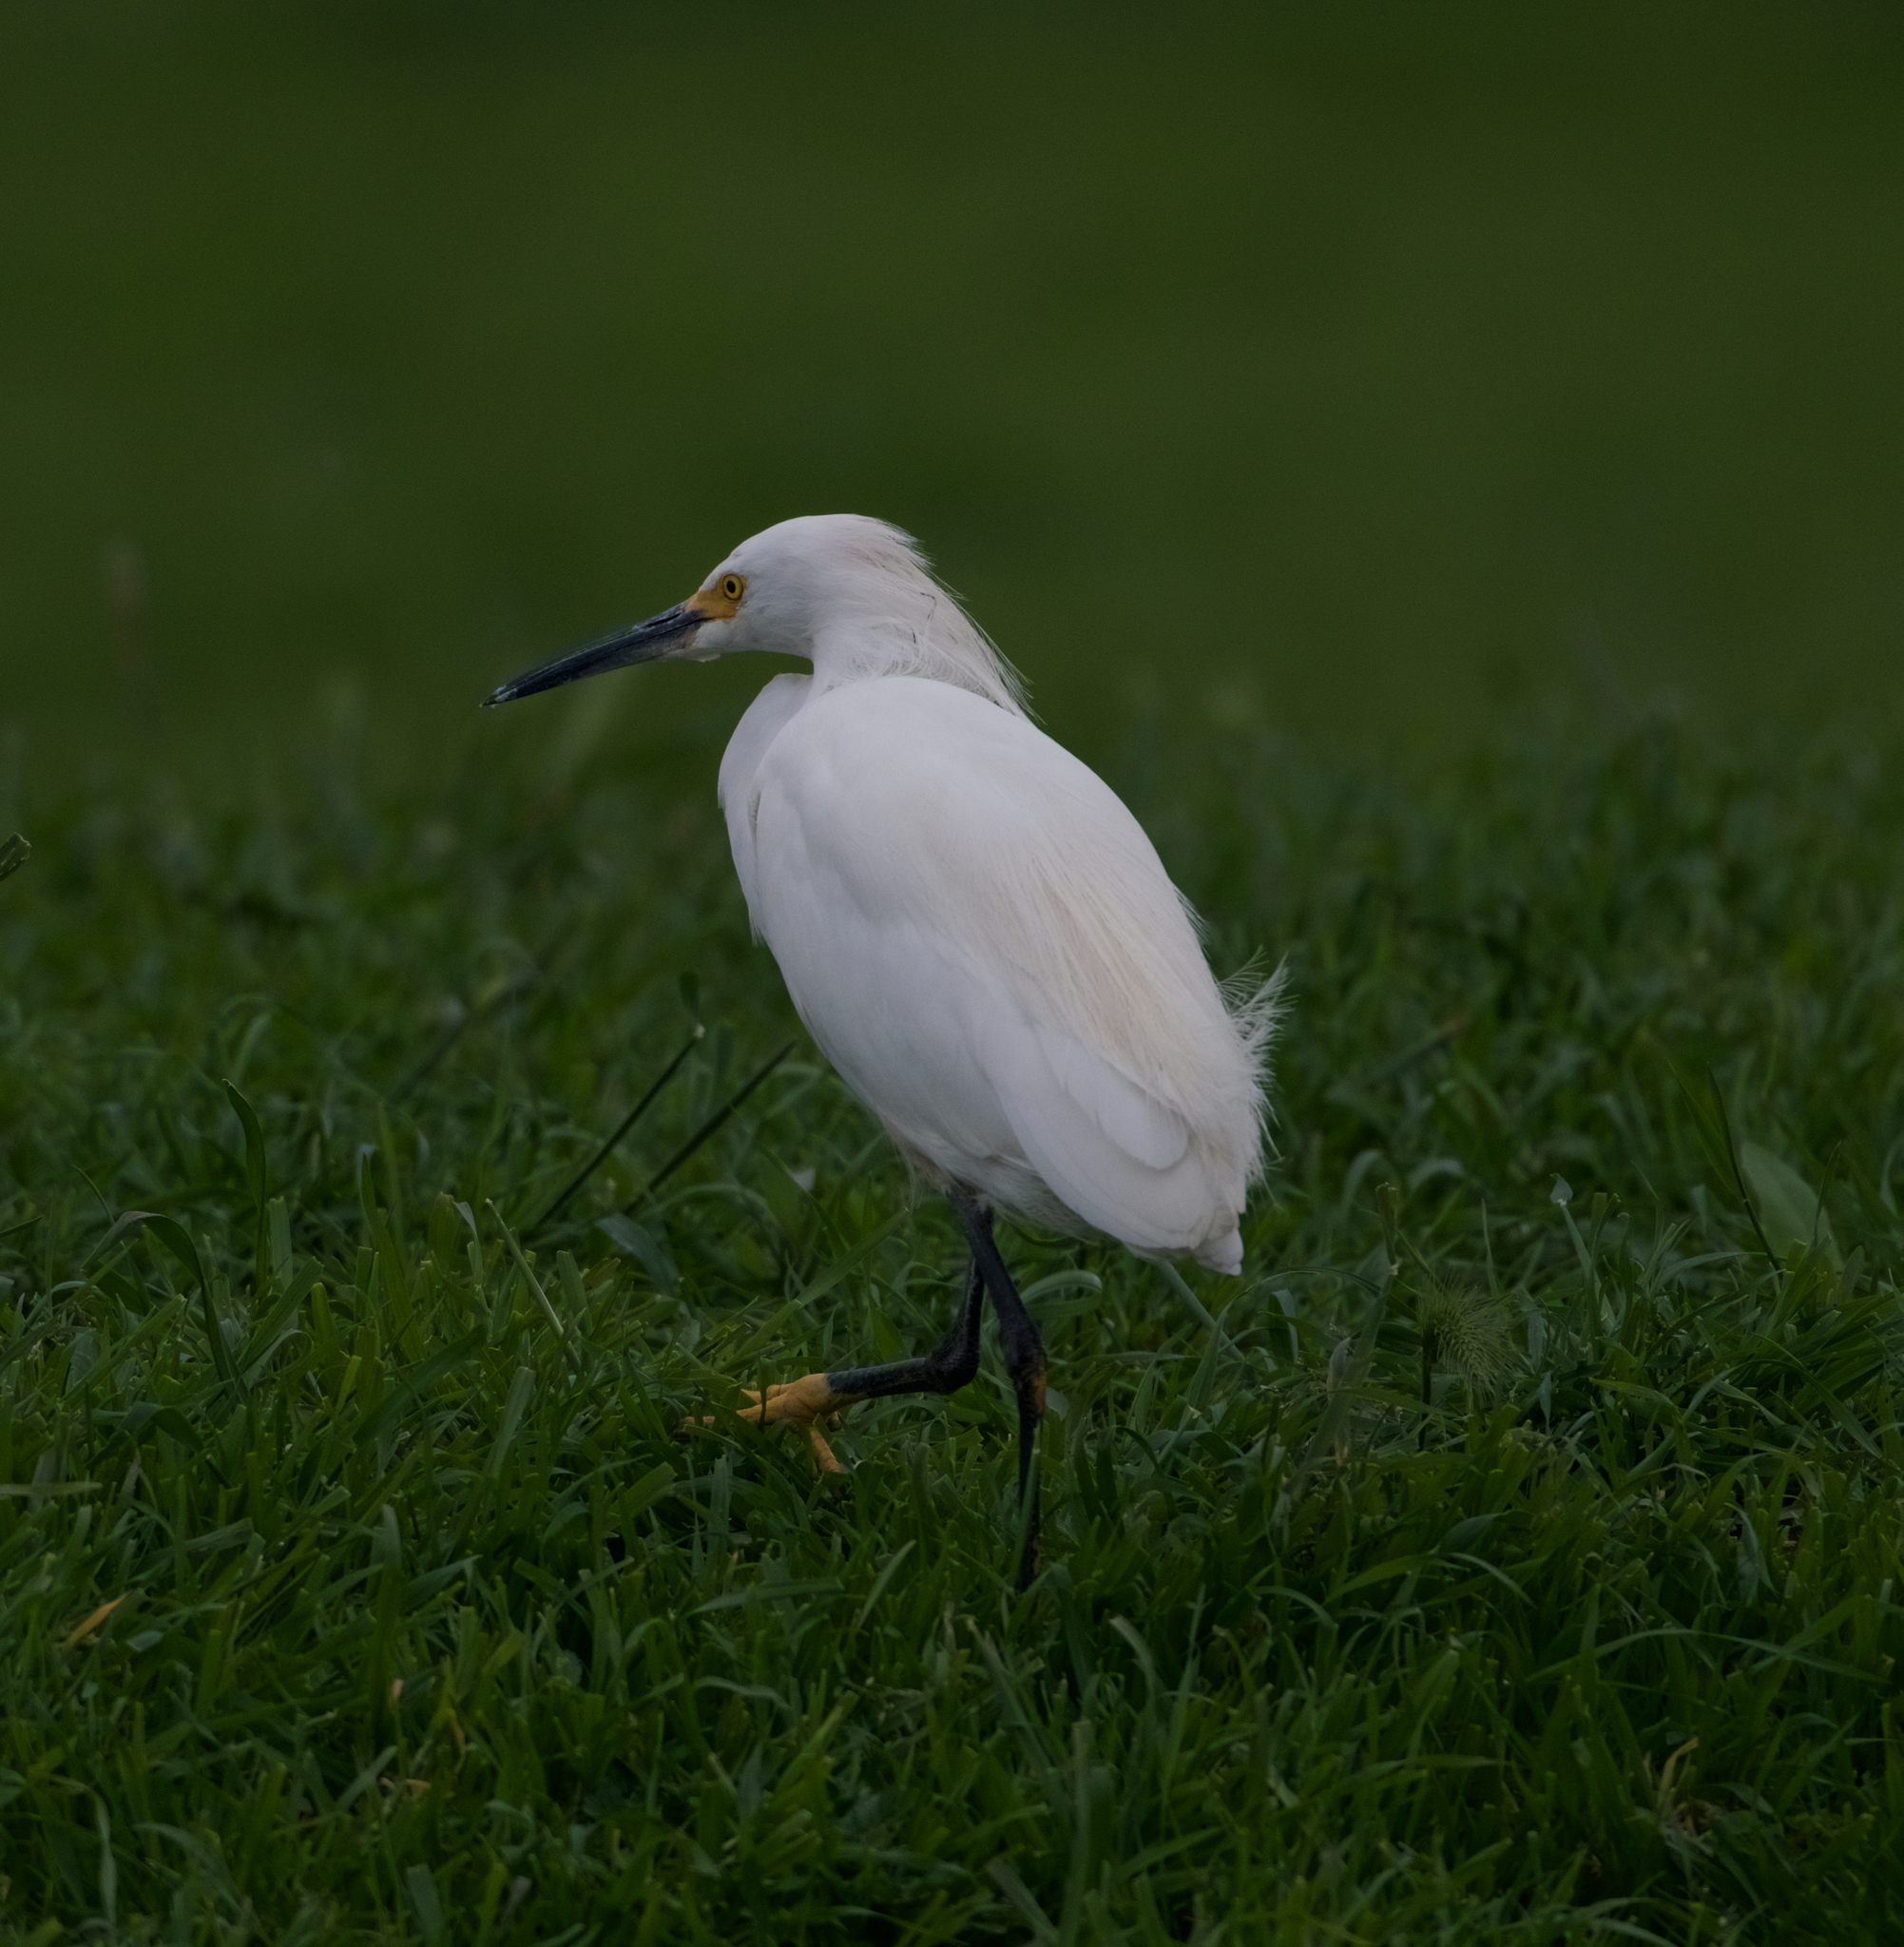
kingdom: Animalia
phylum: Chordata
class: Aves
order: Pelecaniformes
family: Ardeidae
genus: Egretta
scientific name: Egretta thula
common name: Snowy egret
